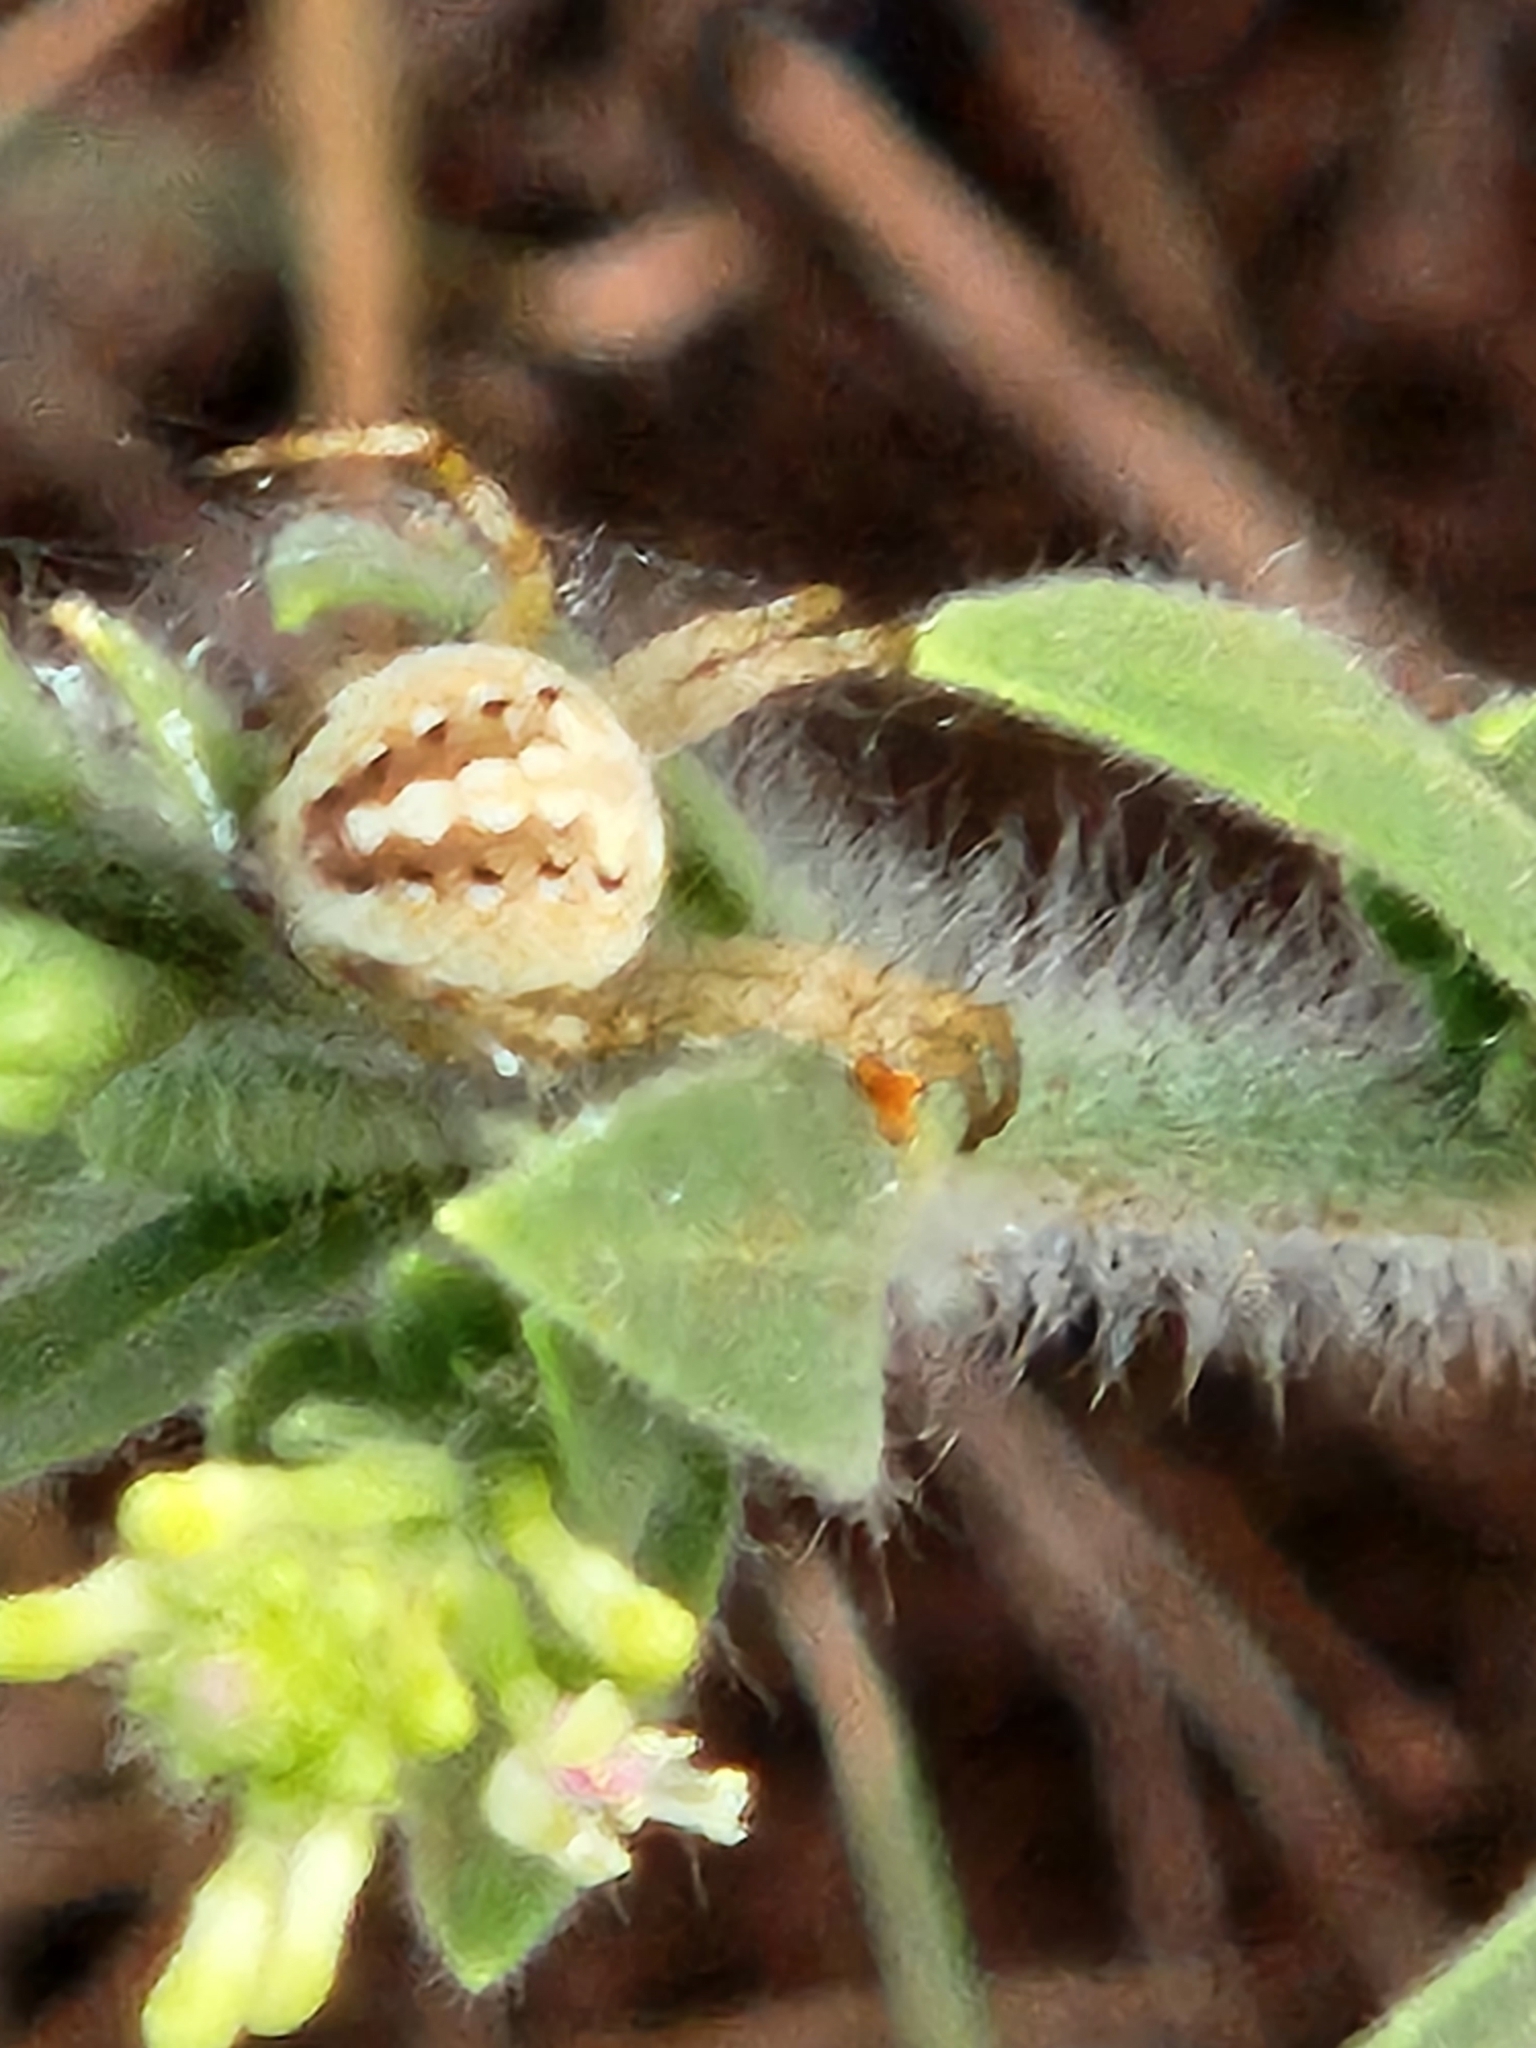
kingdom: Animalia
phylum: Arthropoda
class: Arachnida
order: Araneae
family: Araneidae
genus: Neoscona
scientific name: Neoscona oaxacensis
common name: Orb weavers
